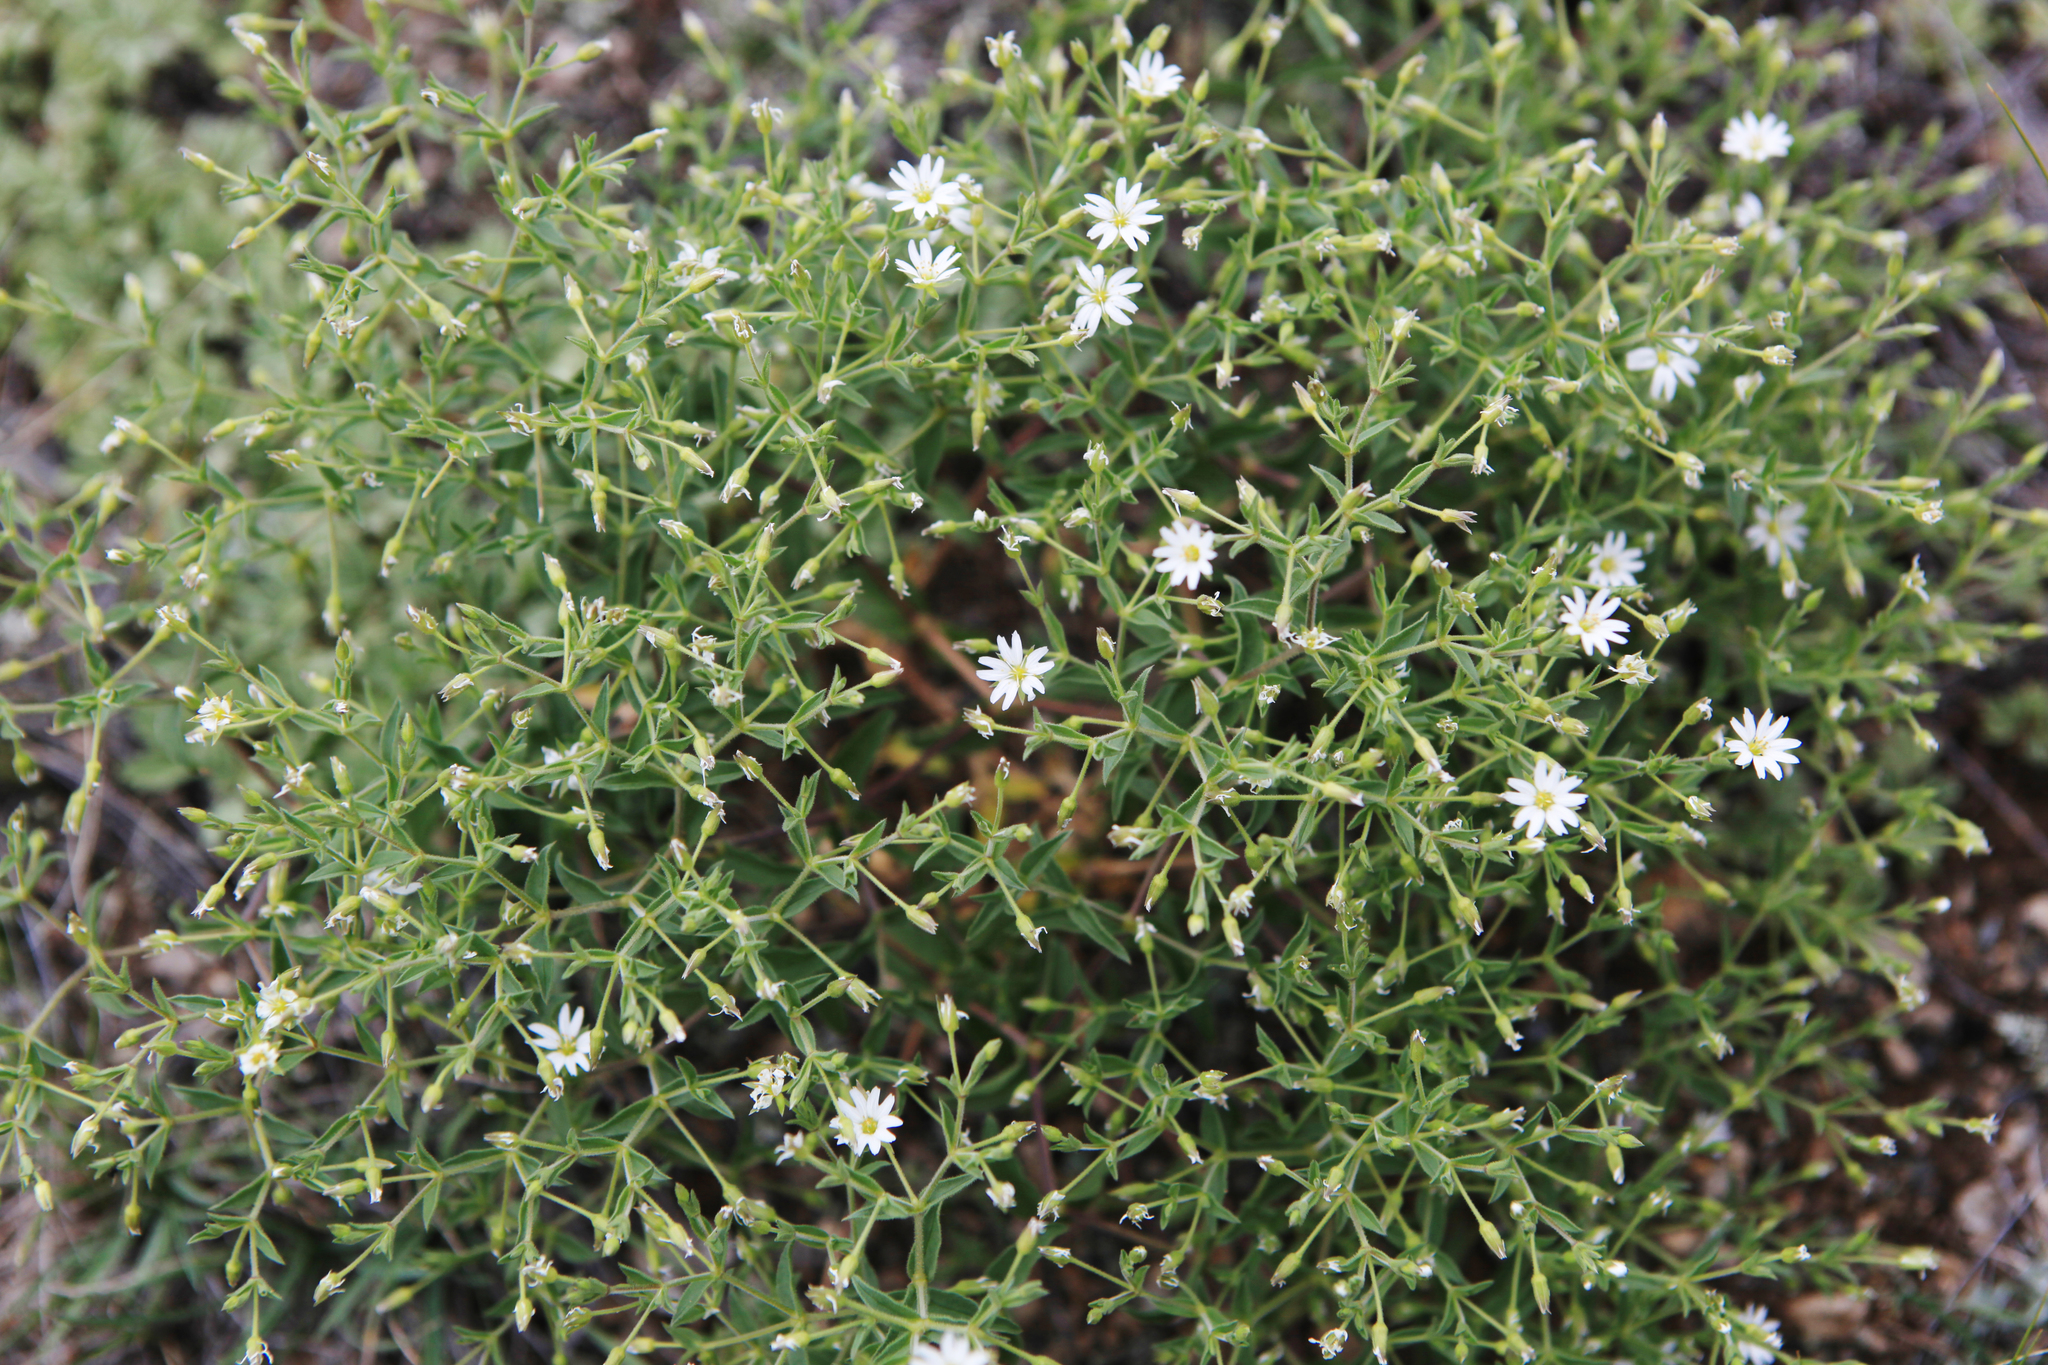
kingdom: Plantae
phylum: Tracheophyta
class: Magnoliopsida
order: Caryophyllales
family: Caryophyllaceae
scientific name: Caryophyllaceae
